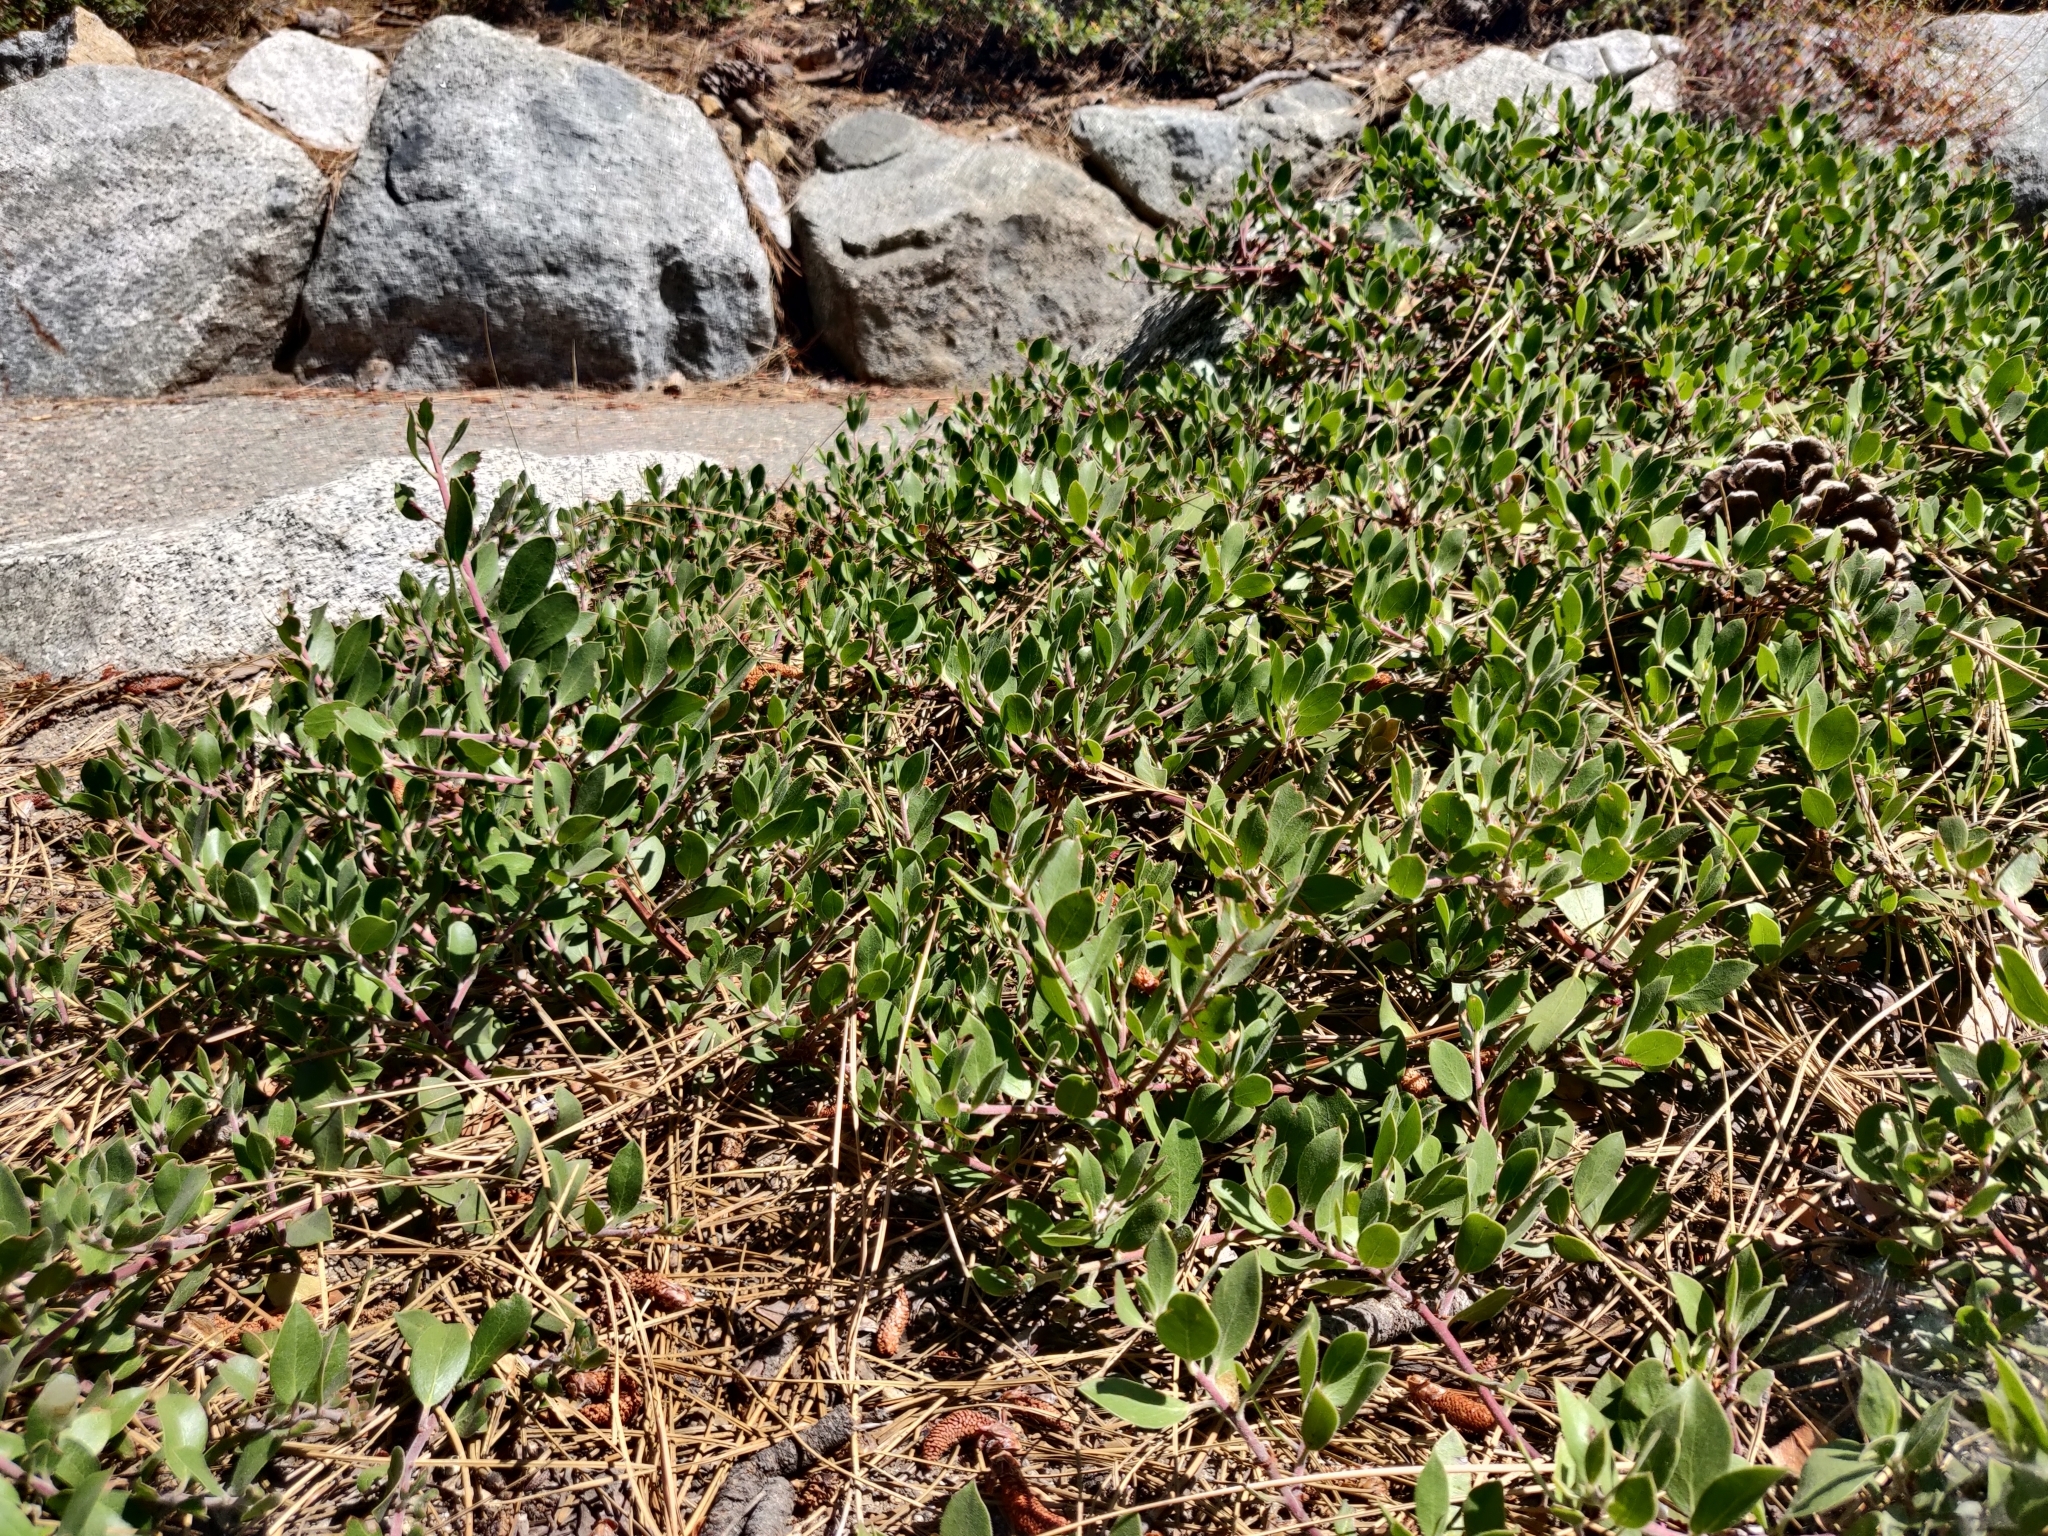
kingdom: Plantae
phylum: Tracheophyta
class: Magnoliopsida
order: Ericales
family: Ericaceae
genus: Arctostaphylos
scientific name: Arctostaphylos nevadensis
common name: Pinemat manzanita
